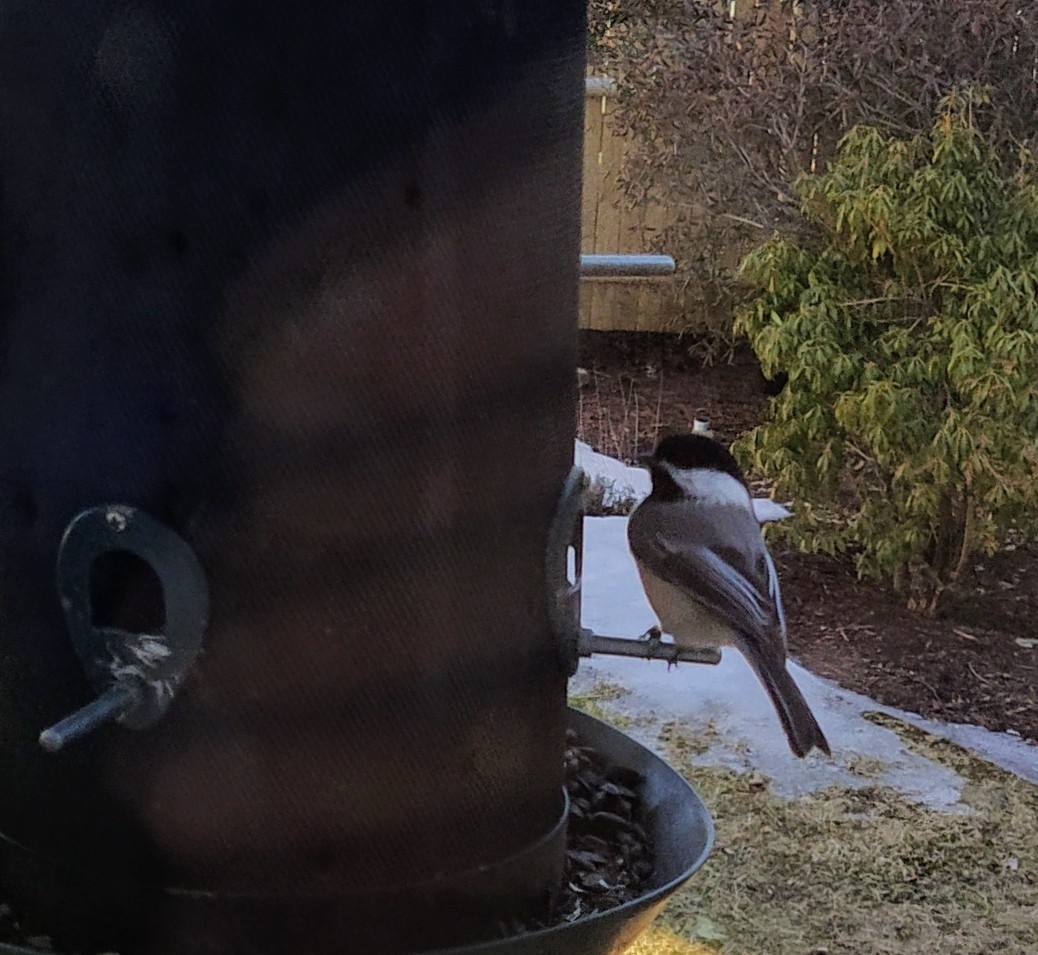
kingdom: Animalia
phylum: Chordata
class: Aves
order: Passeriformes
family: Paridae
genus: Poecile
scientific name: Poecile atricapillus
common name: Black-capped chickadee
